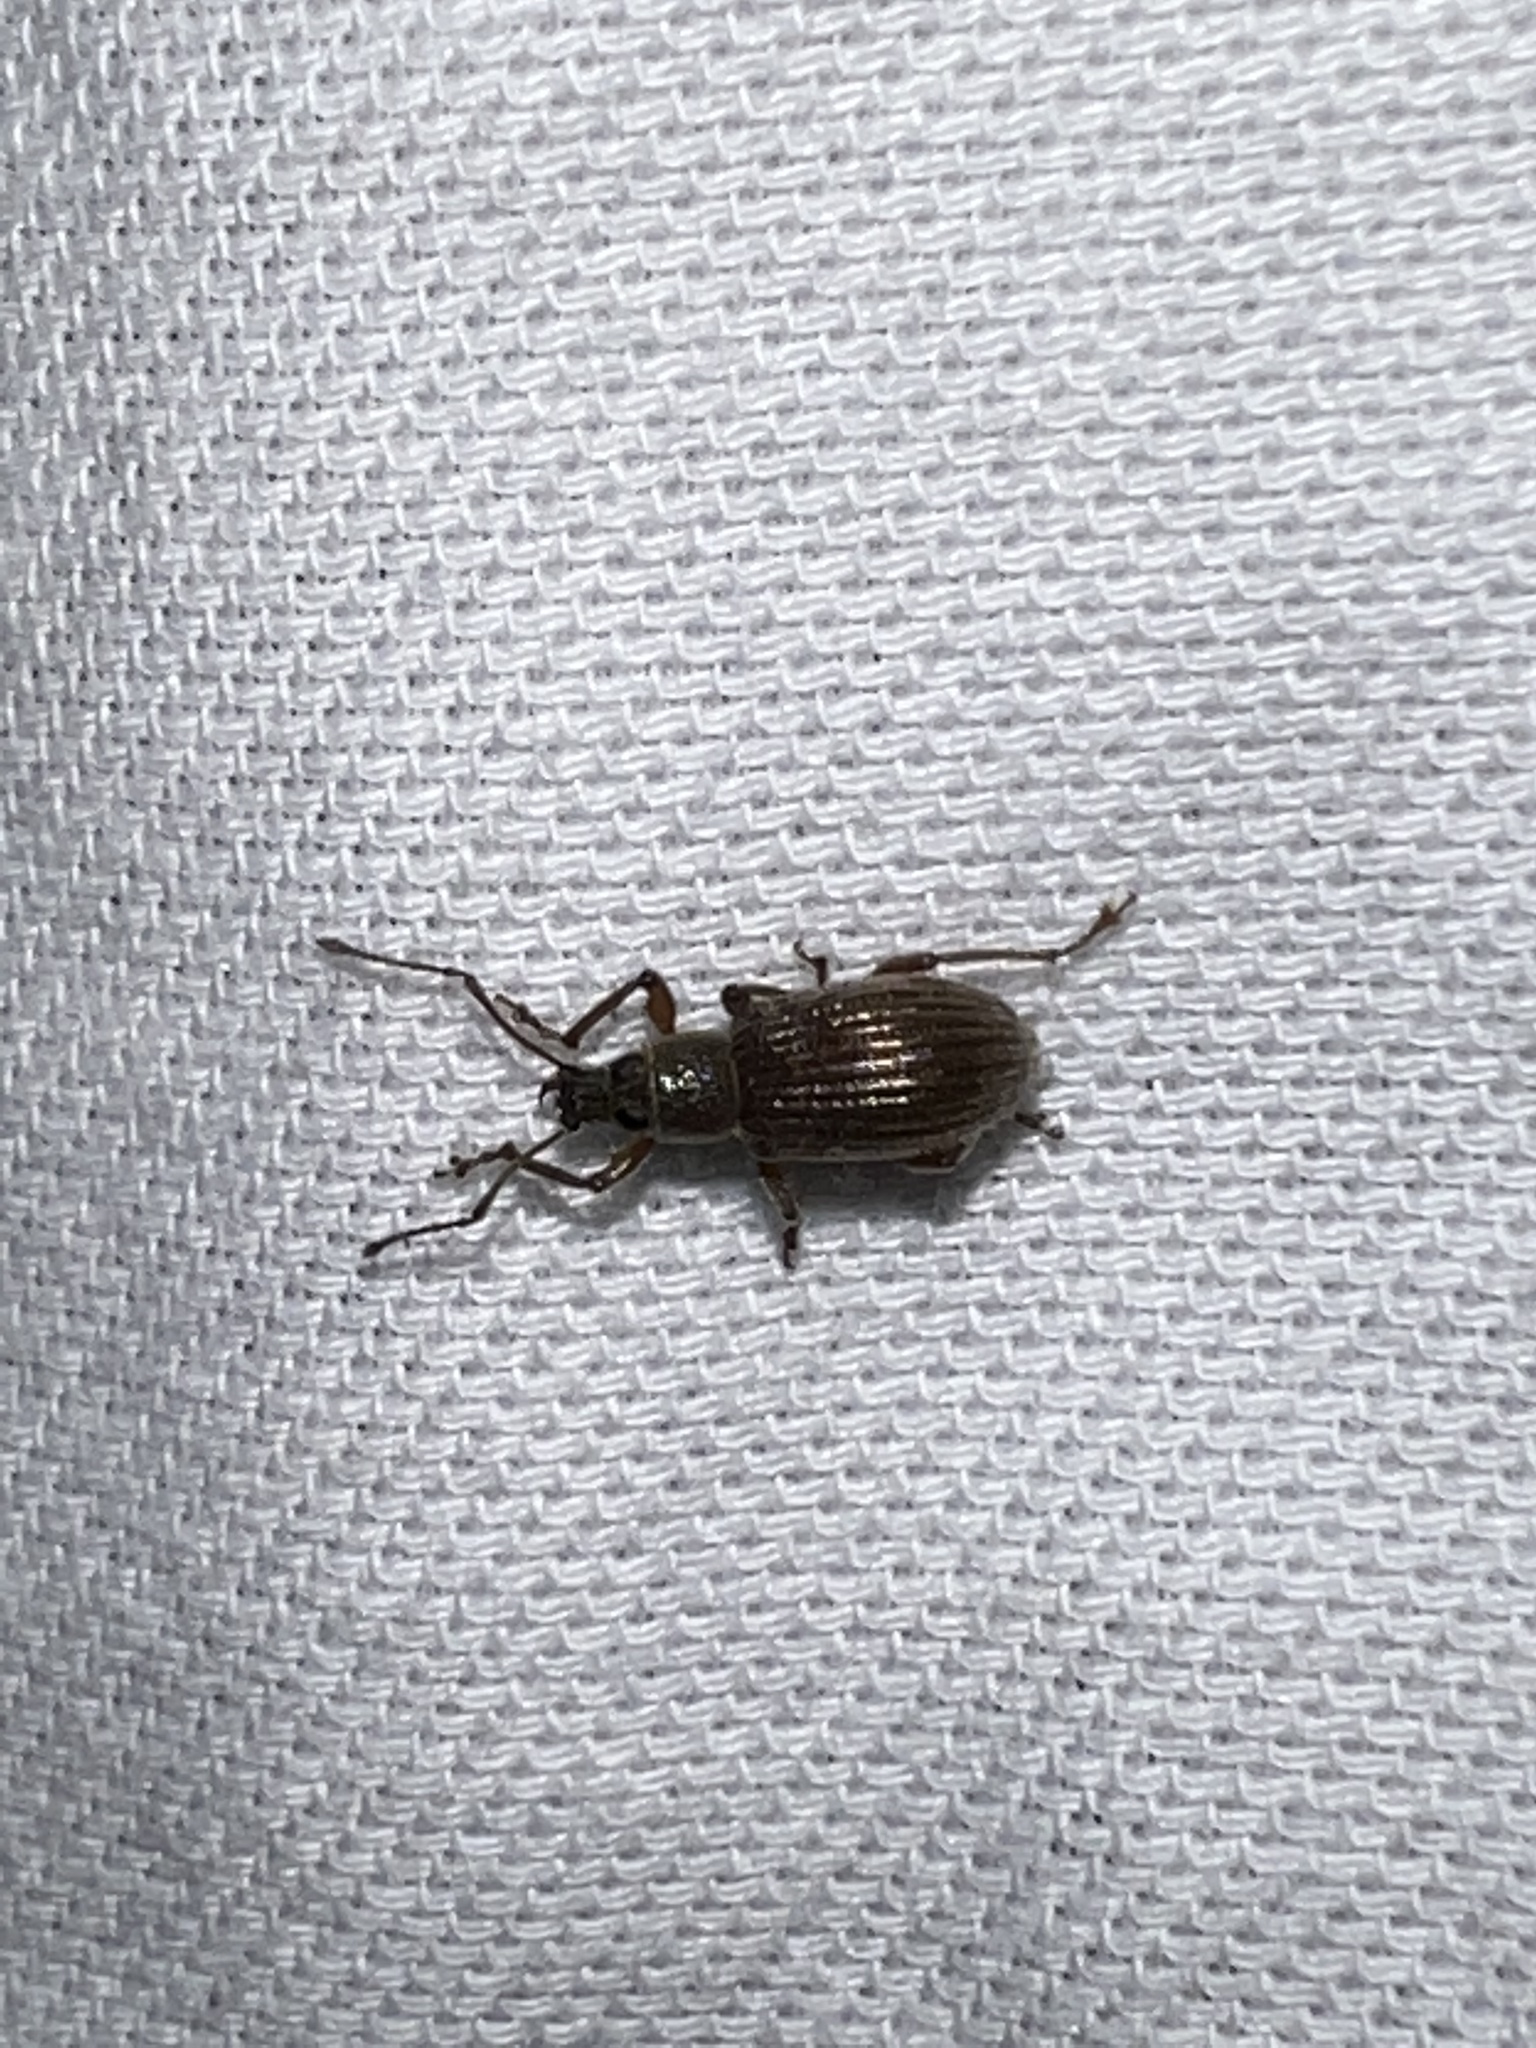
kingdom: Animalia
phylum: Arthropoda
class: Insecta
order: Coleoptera
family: Curculionidae
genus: Cyrtepistomus
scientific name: Cyrtepistomus castaneus
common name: Weevil
